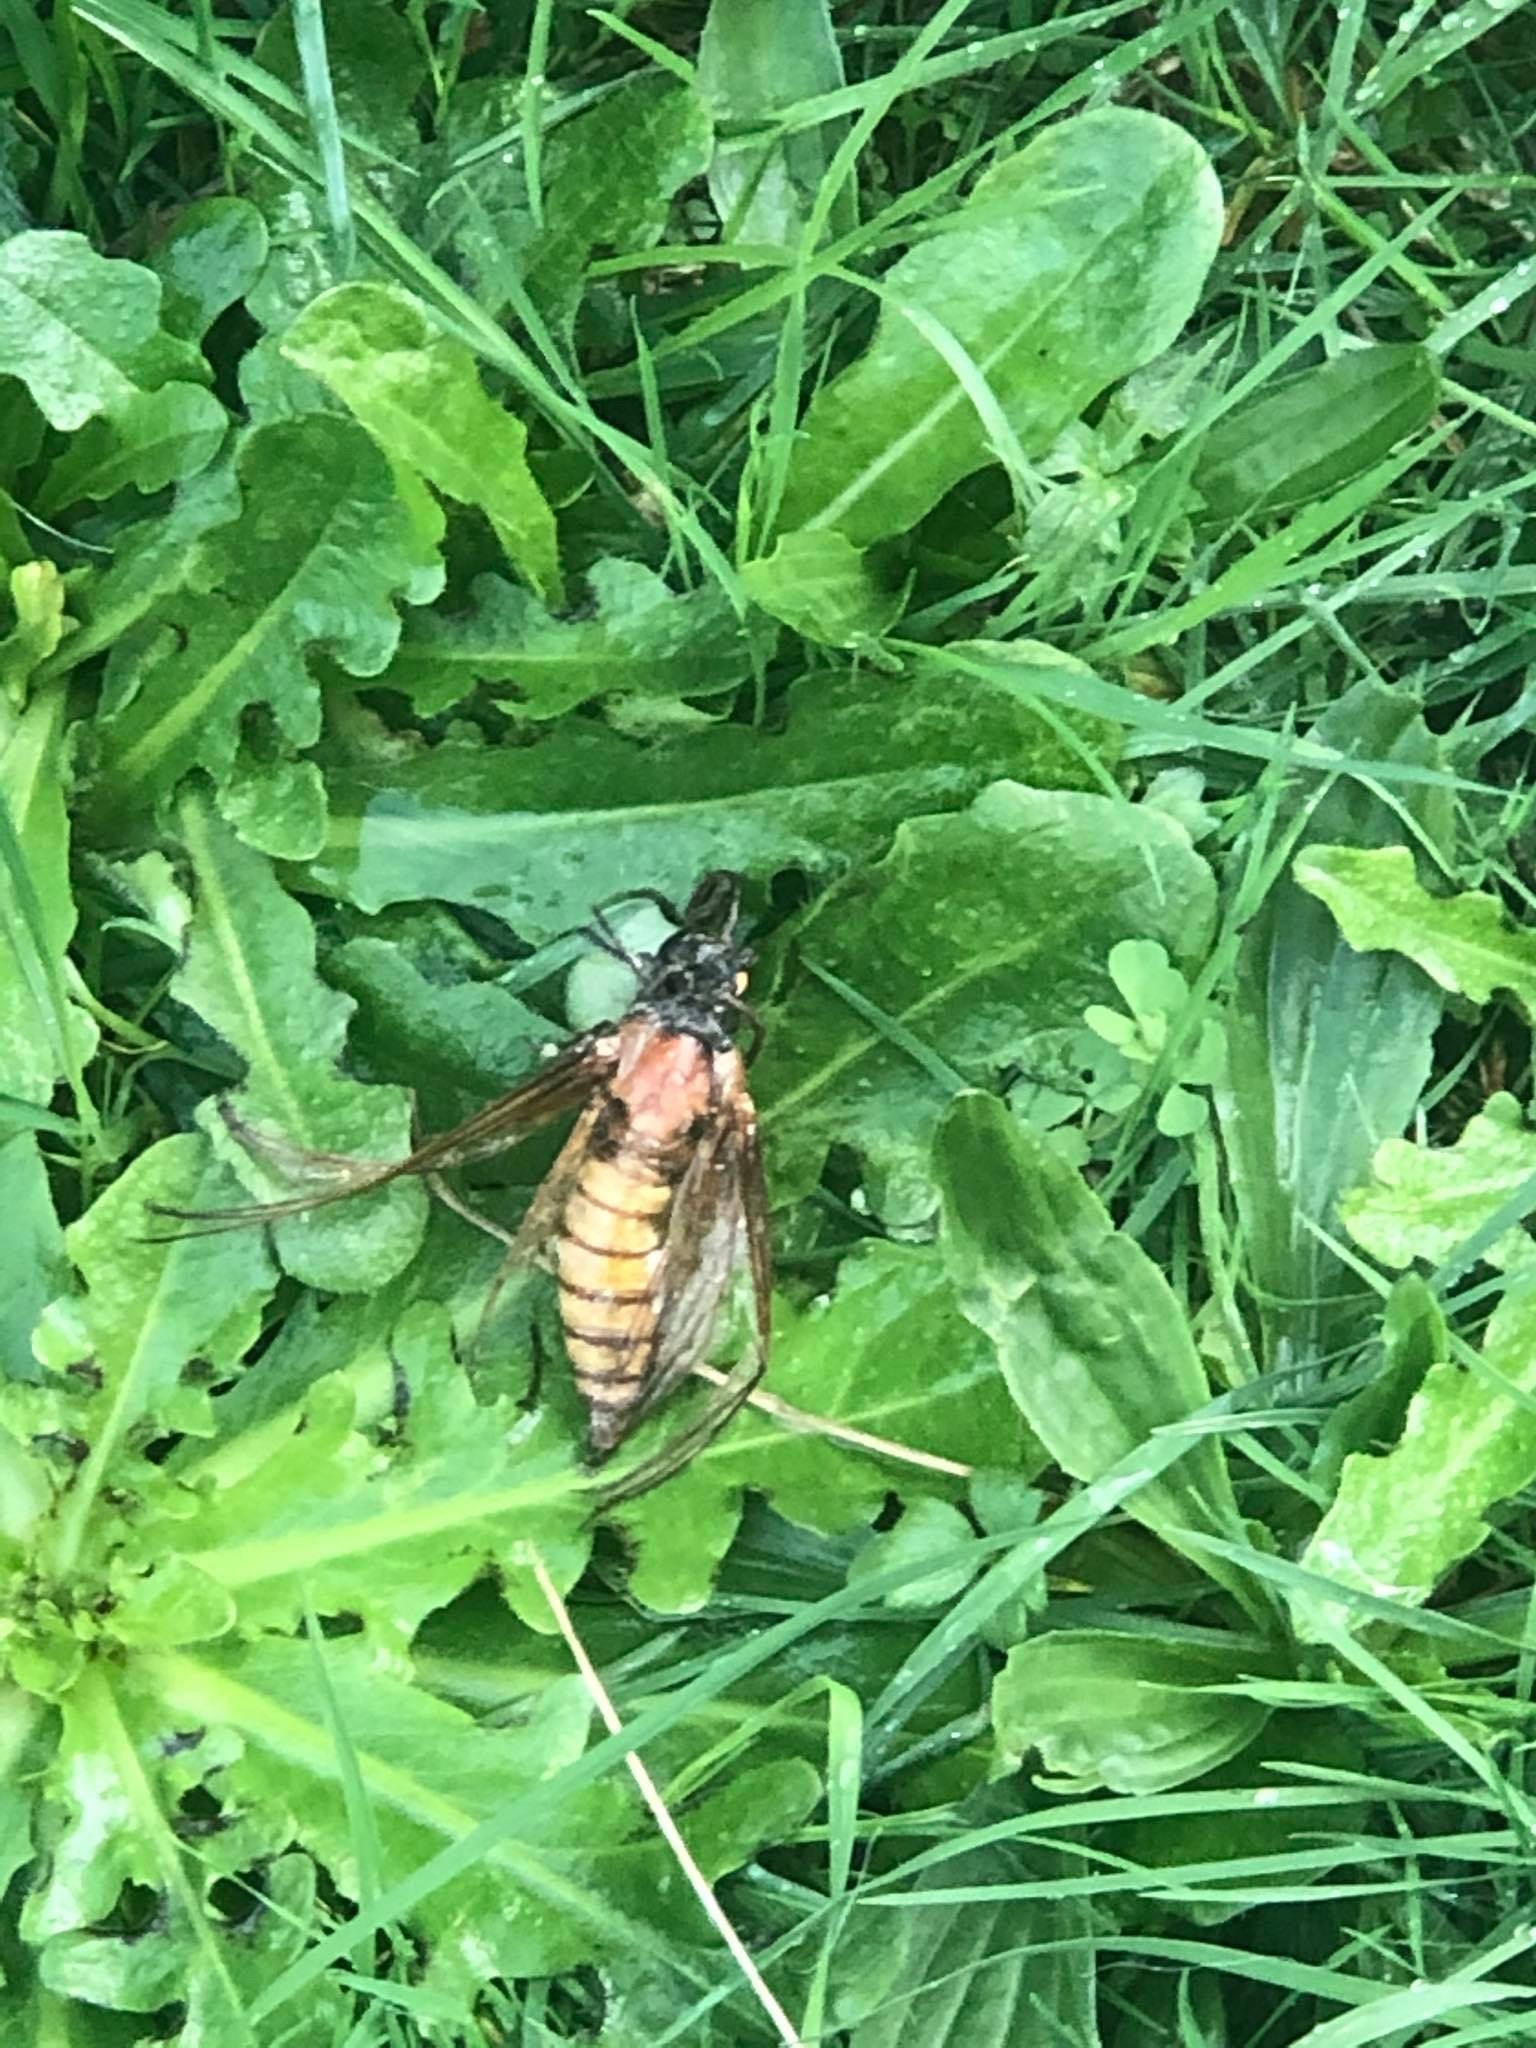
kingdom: Animalia
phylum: Arthropoda
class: Insecta
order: Lepidoptera
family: Sphingidae
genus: Agrius
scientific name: Agrius convolvuli
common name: Convolvulus hawkmoth
